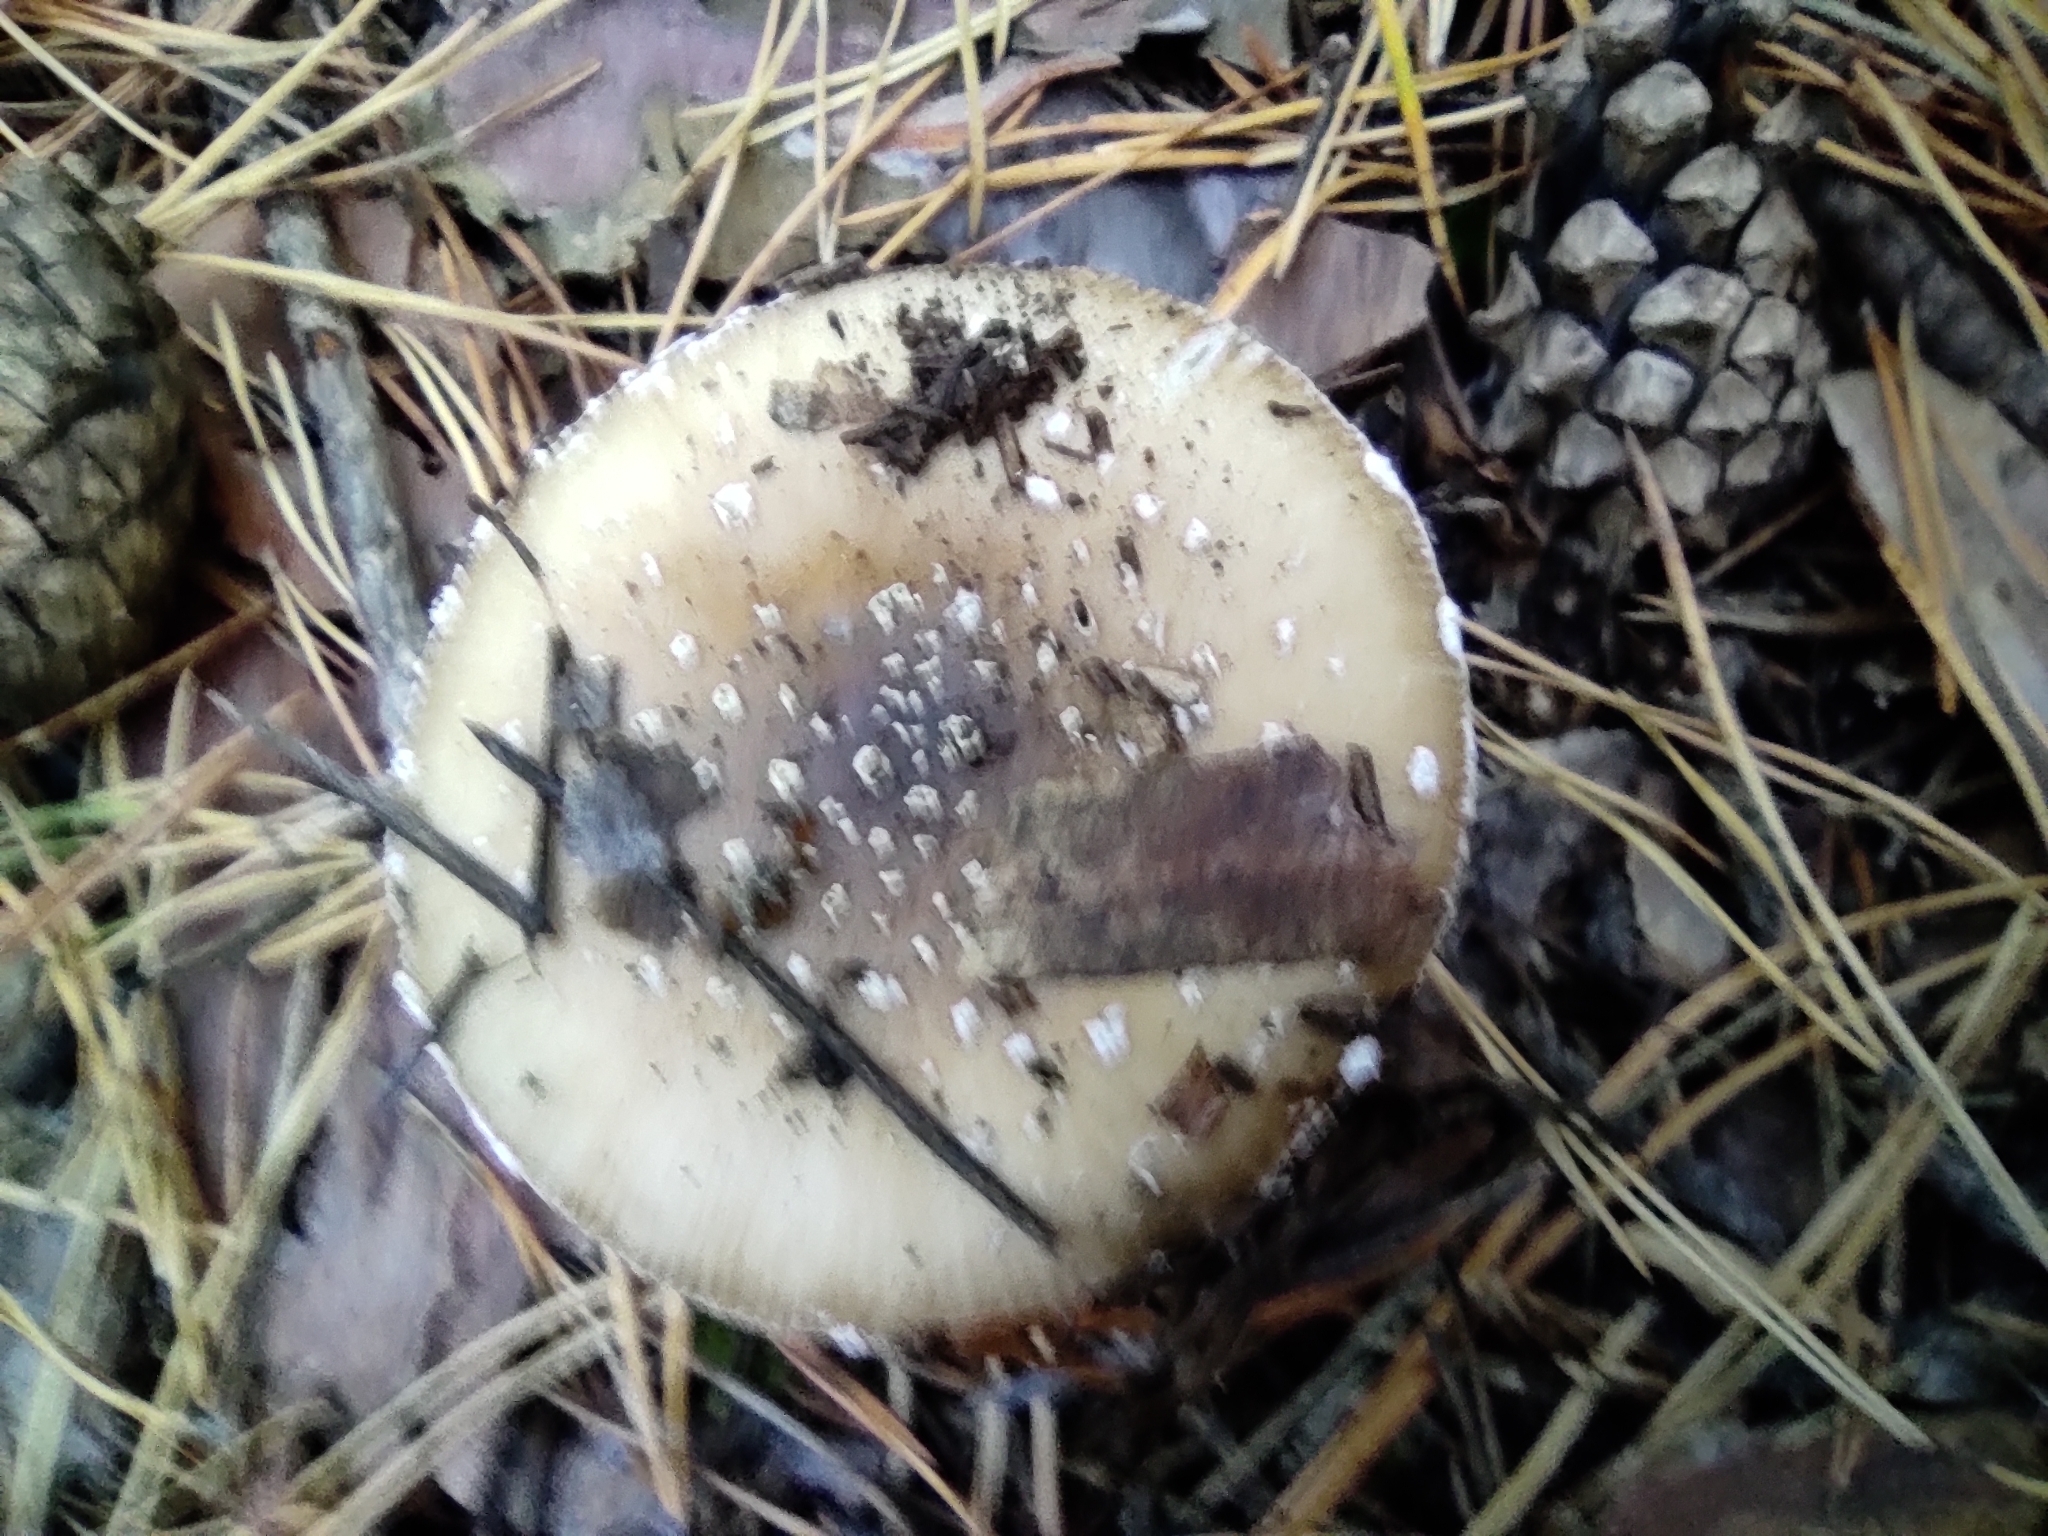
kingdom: Fungi
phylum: Basidiomycota
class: Agaricomycetes
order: Agaricales
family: Amanitaceae
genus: Amanita
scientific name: Amanita pantherina
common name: Panthercap
